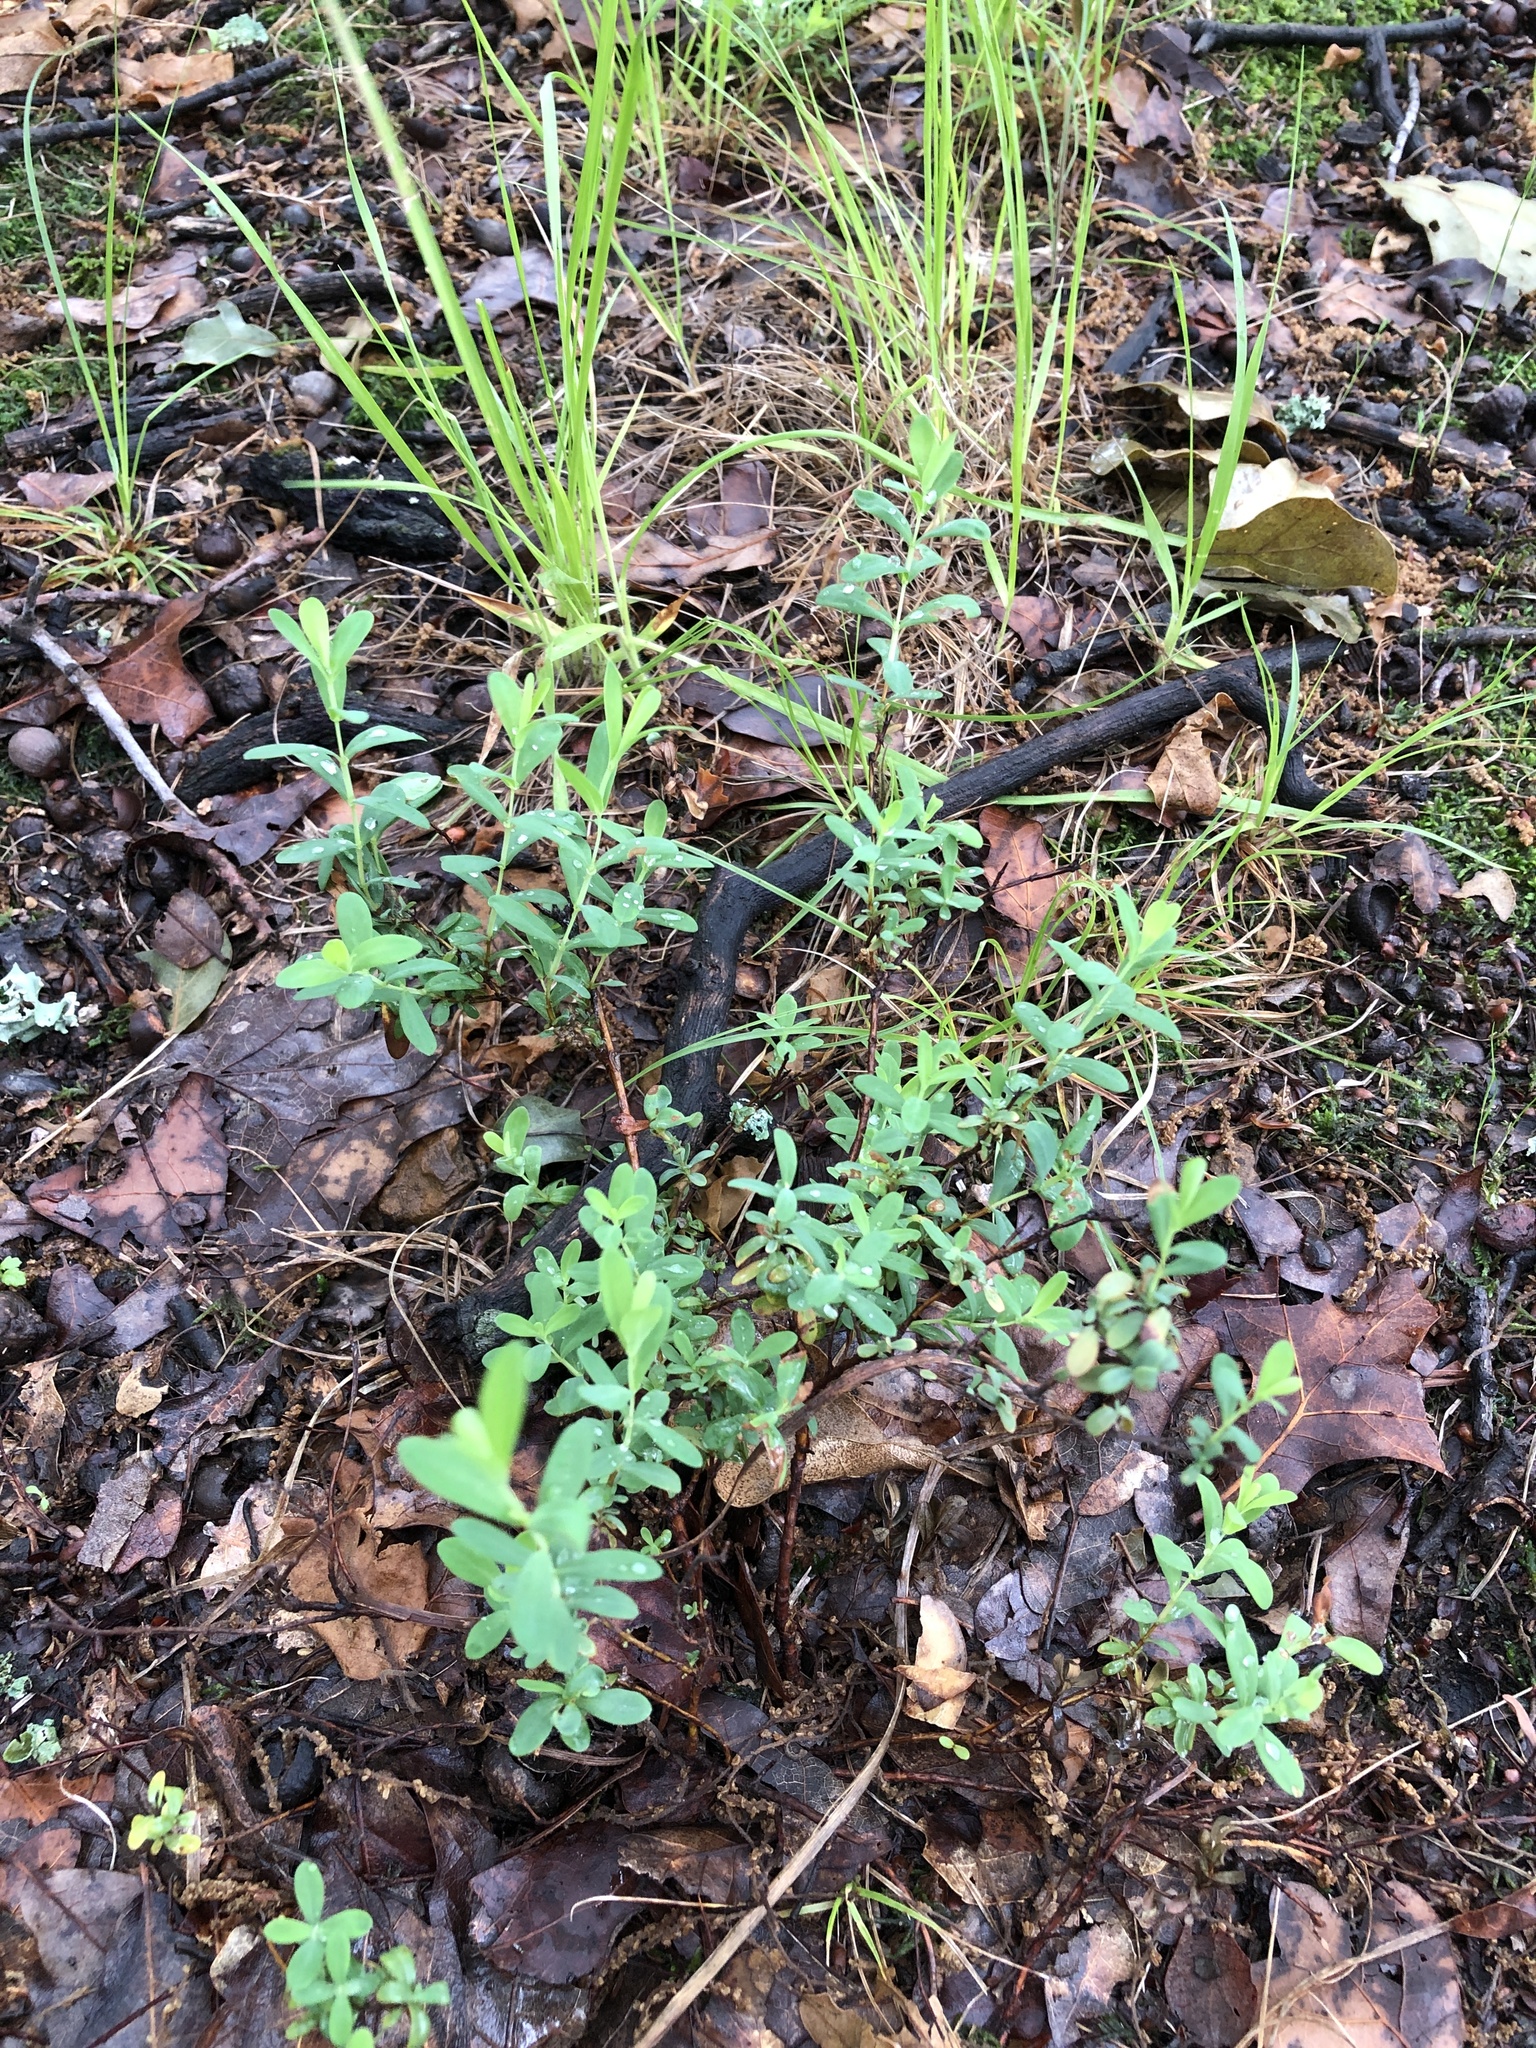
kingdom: Plantae
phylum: Tracheophyta
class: Magnoliopsida
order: Malpighiales
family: Hypericaceae
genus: Hypericum
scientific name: Hypericum hypericoides
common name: St. andrew's cross
